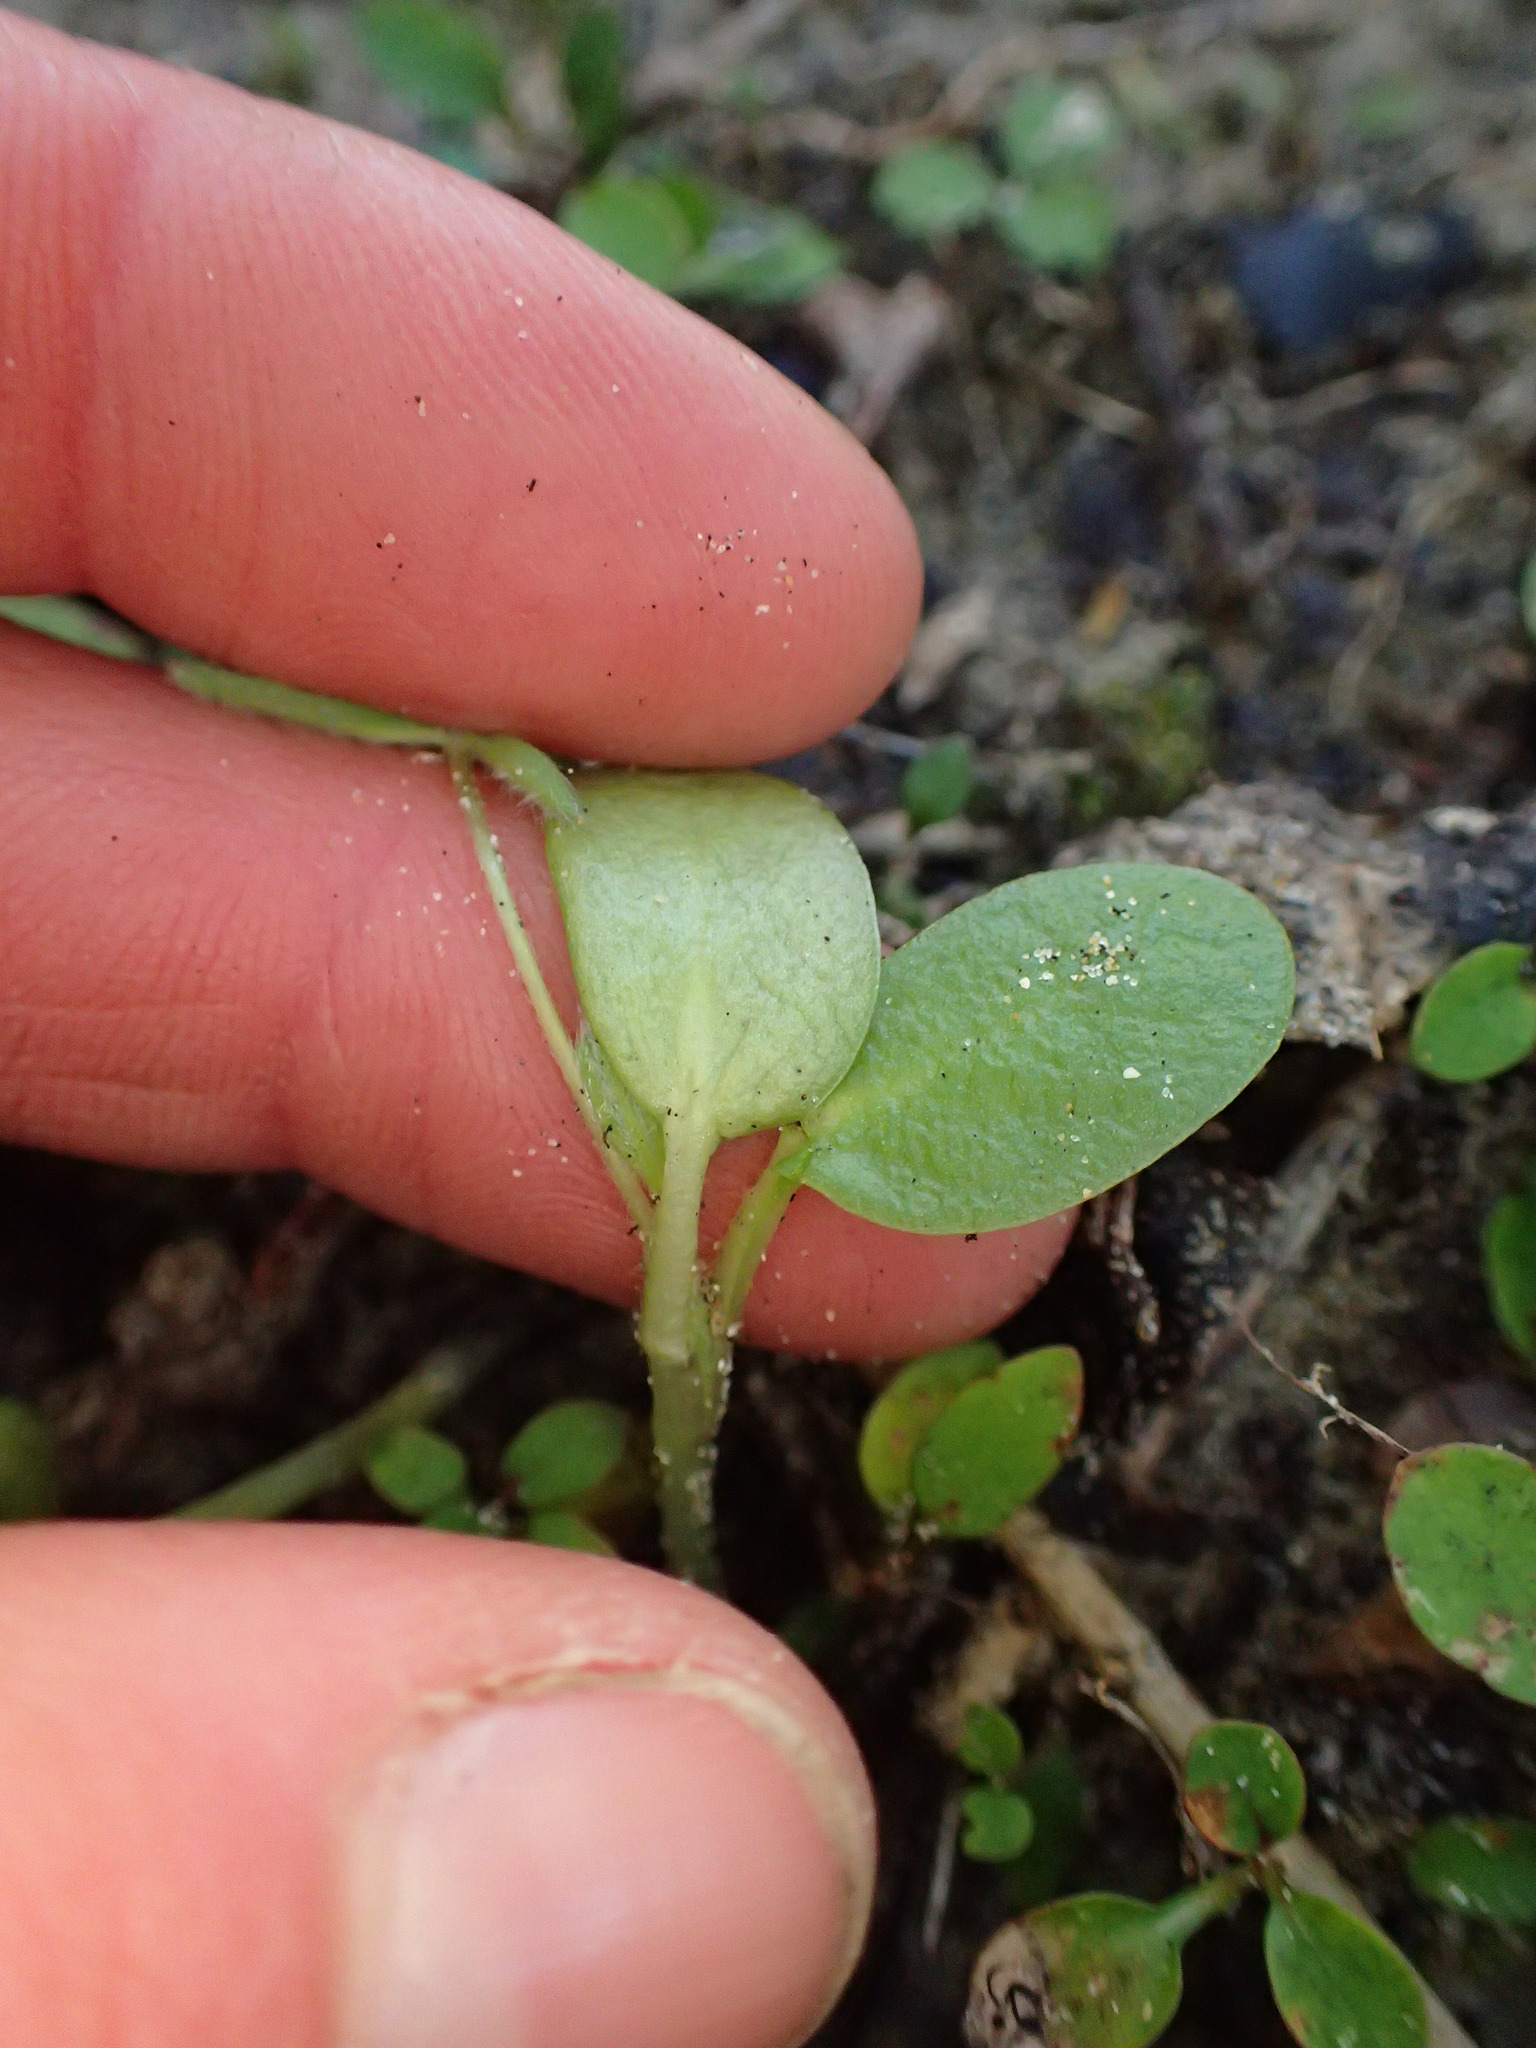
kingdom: Plantae
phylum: Tracheophyta
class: Magnoliopsida
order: Fabales
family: Fabaceae
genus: Lupinus
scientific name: Lupinus arboreus
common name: Yellow bush lupine
